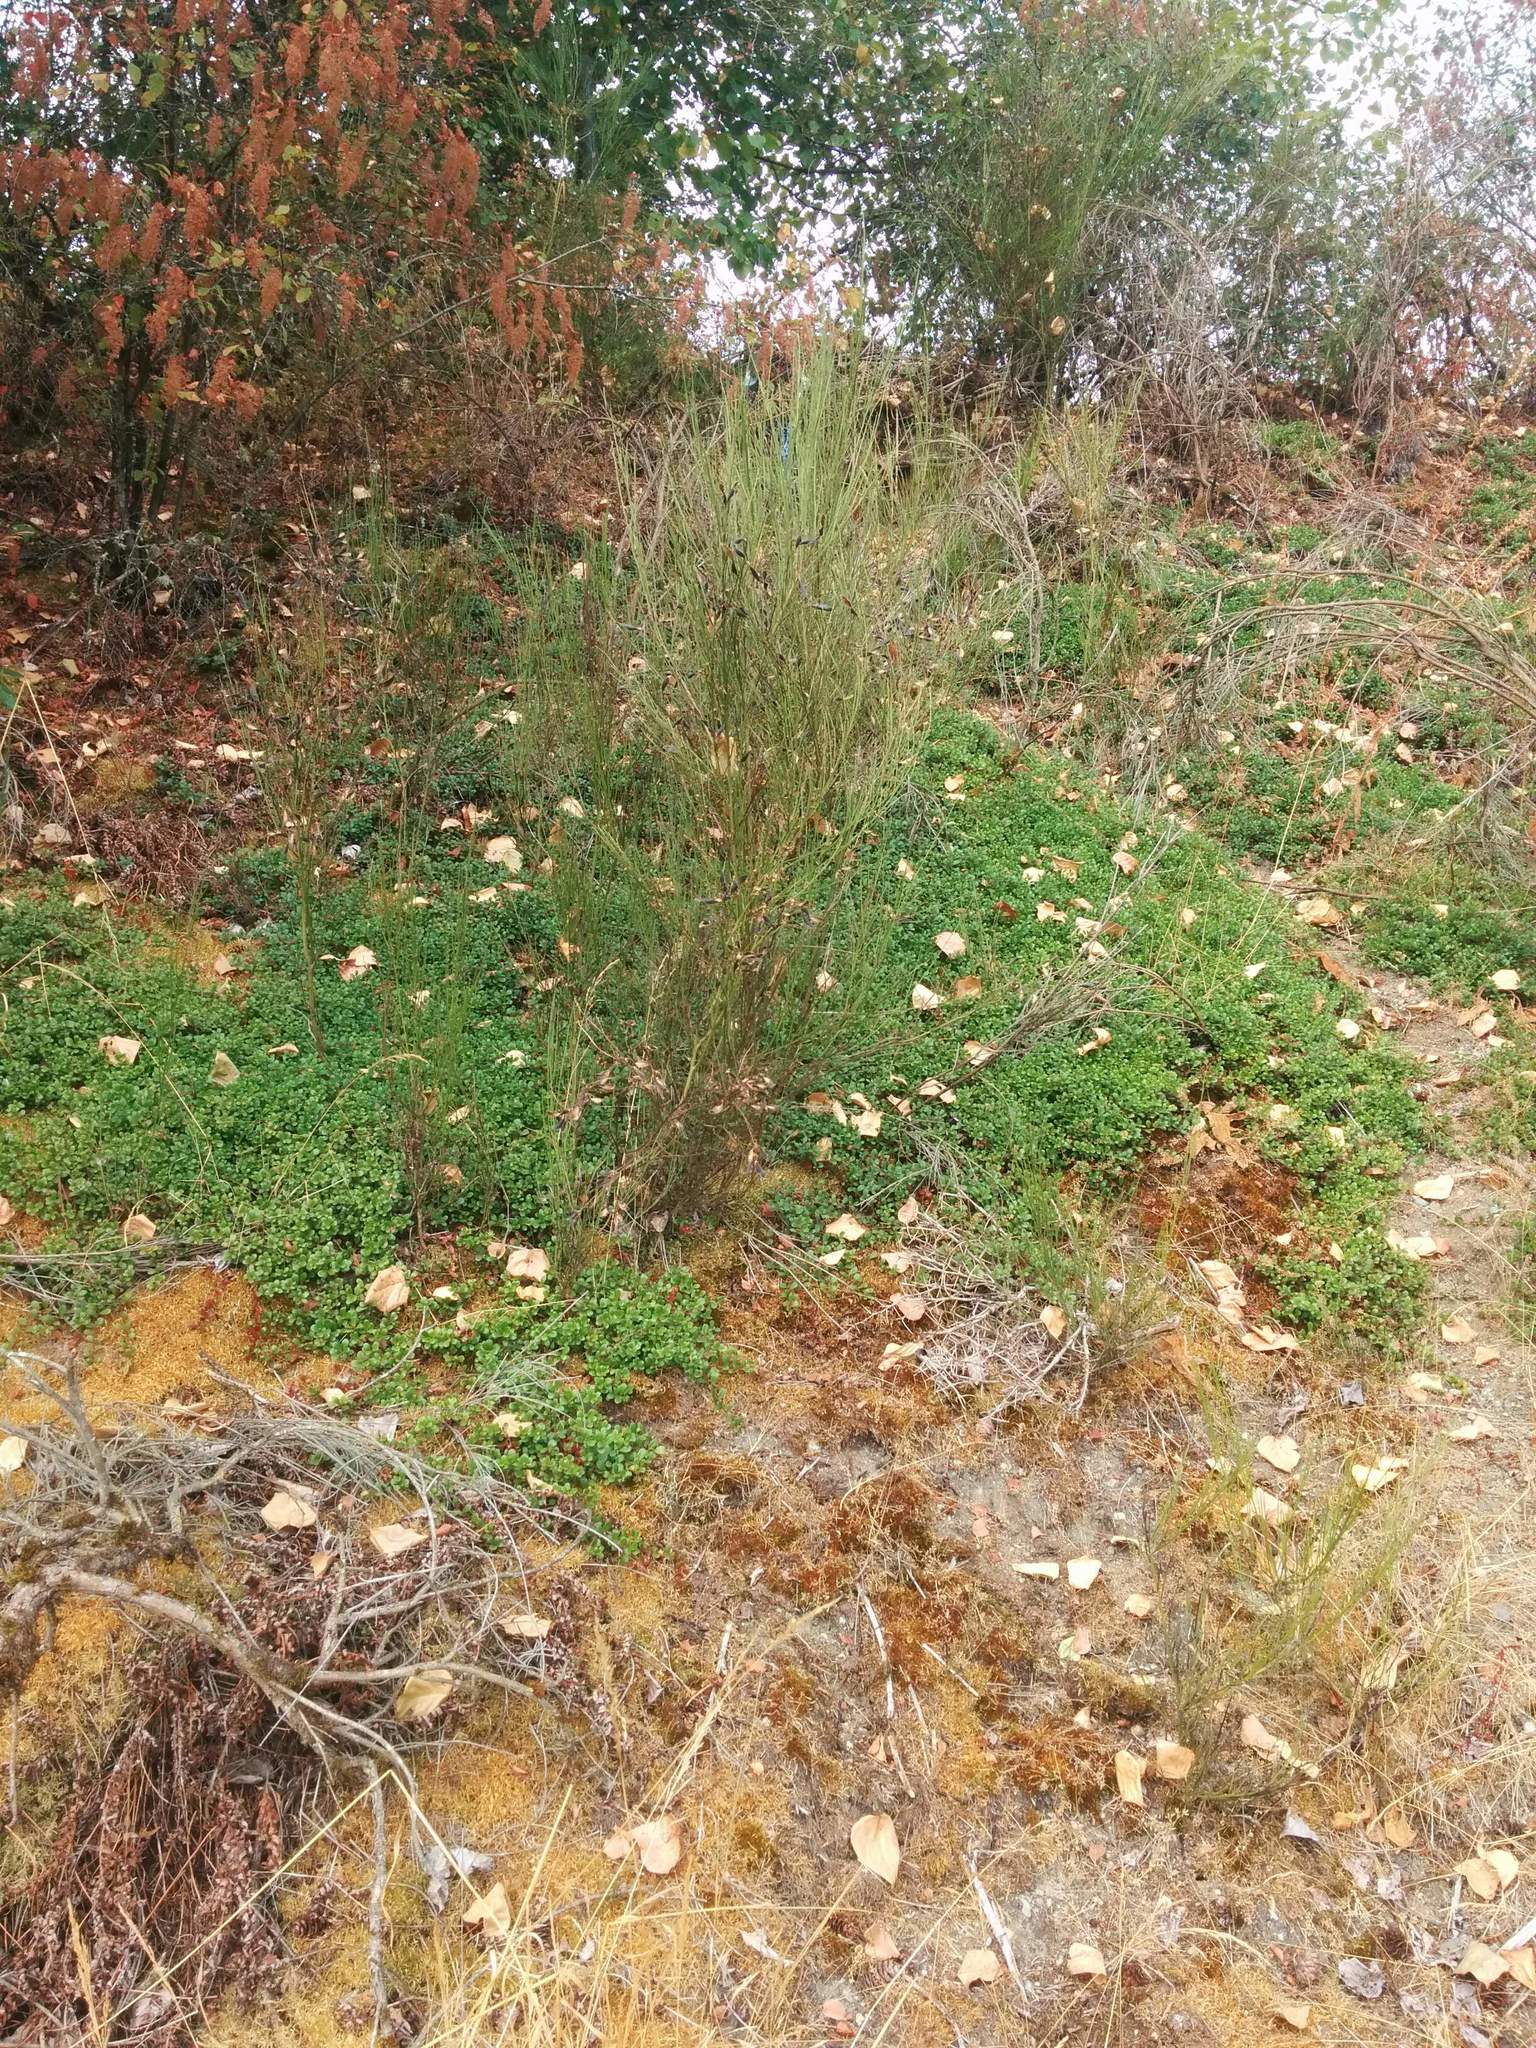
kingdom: Plantae
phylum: Tracheophyta
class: Magnoliopsida
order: Ericales
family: Ericaceae
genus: Arctostaphylos
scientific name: Arctostaphylos uva-ursi
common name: Bearberry
